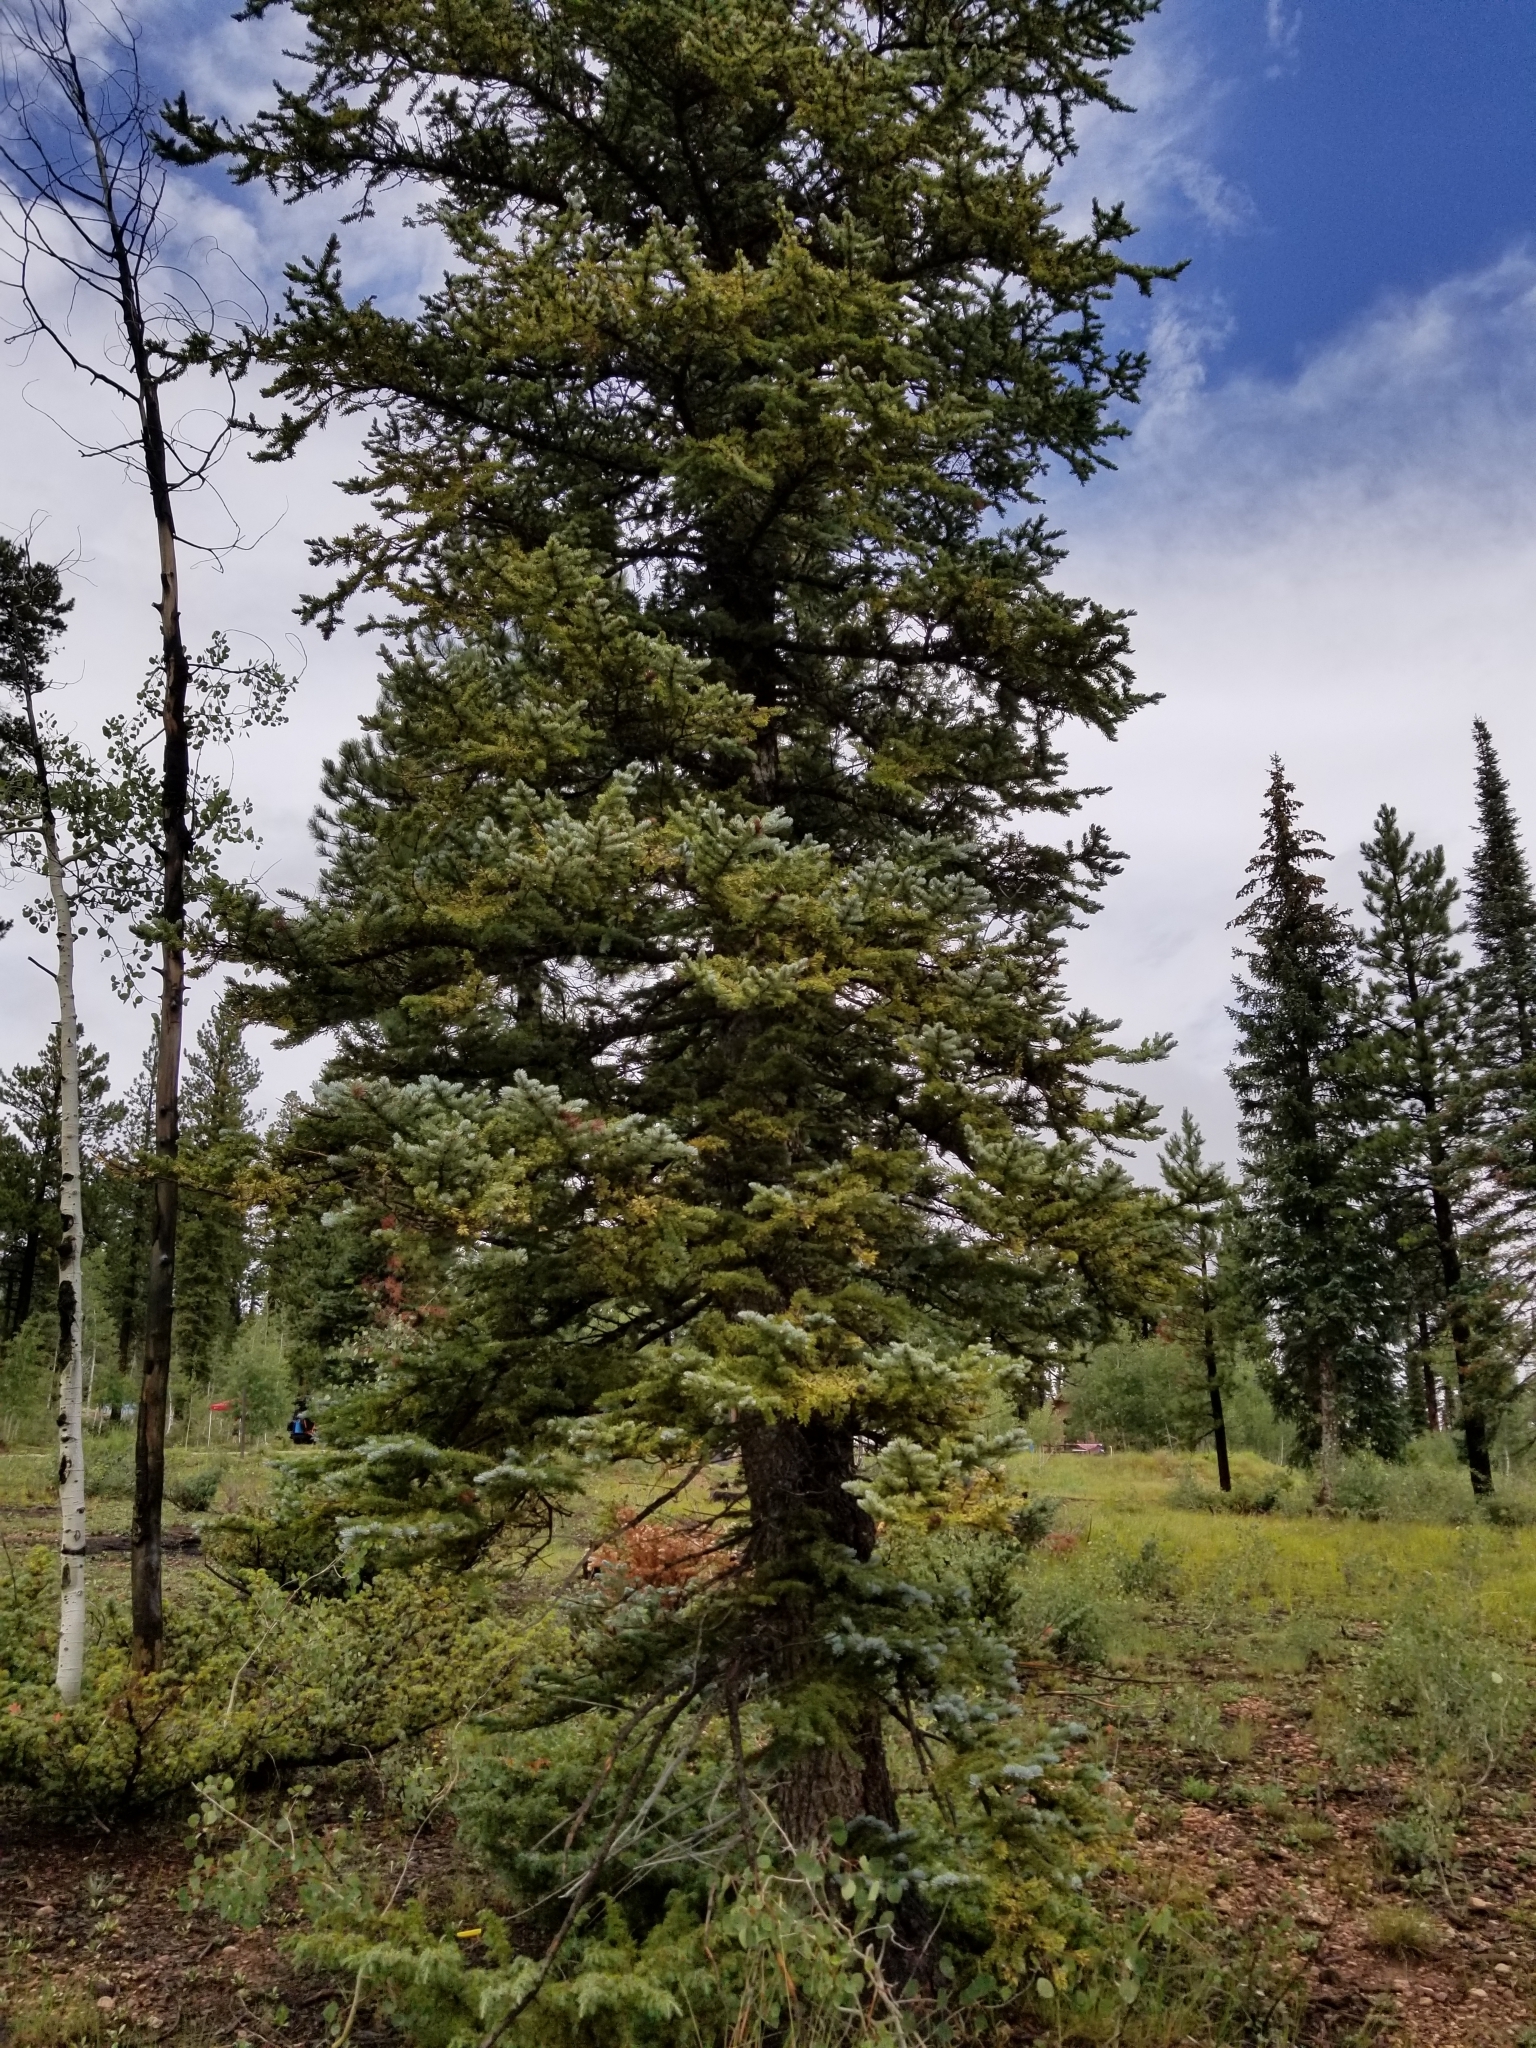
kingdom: Plantae
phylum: Tracheophyta
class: Pinopsida
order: Pinales
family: Pinaceae
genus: Picea
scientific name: Picea engelmannii
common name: Engelmann spruce
